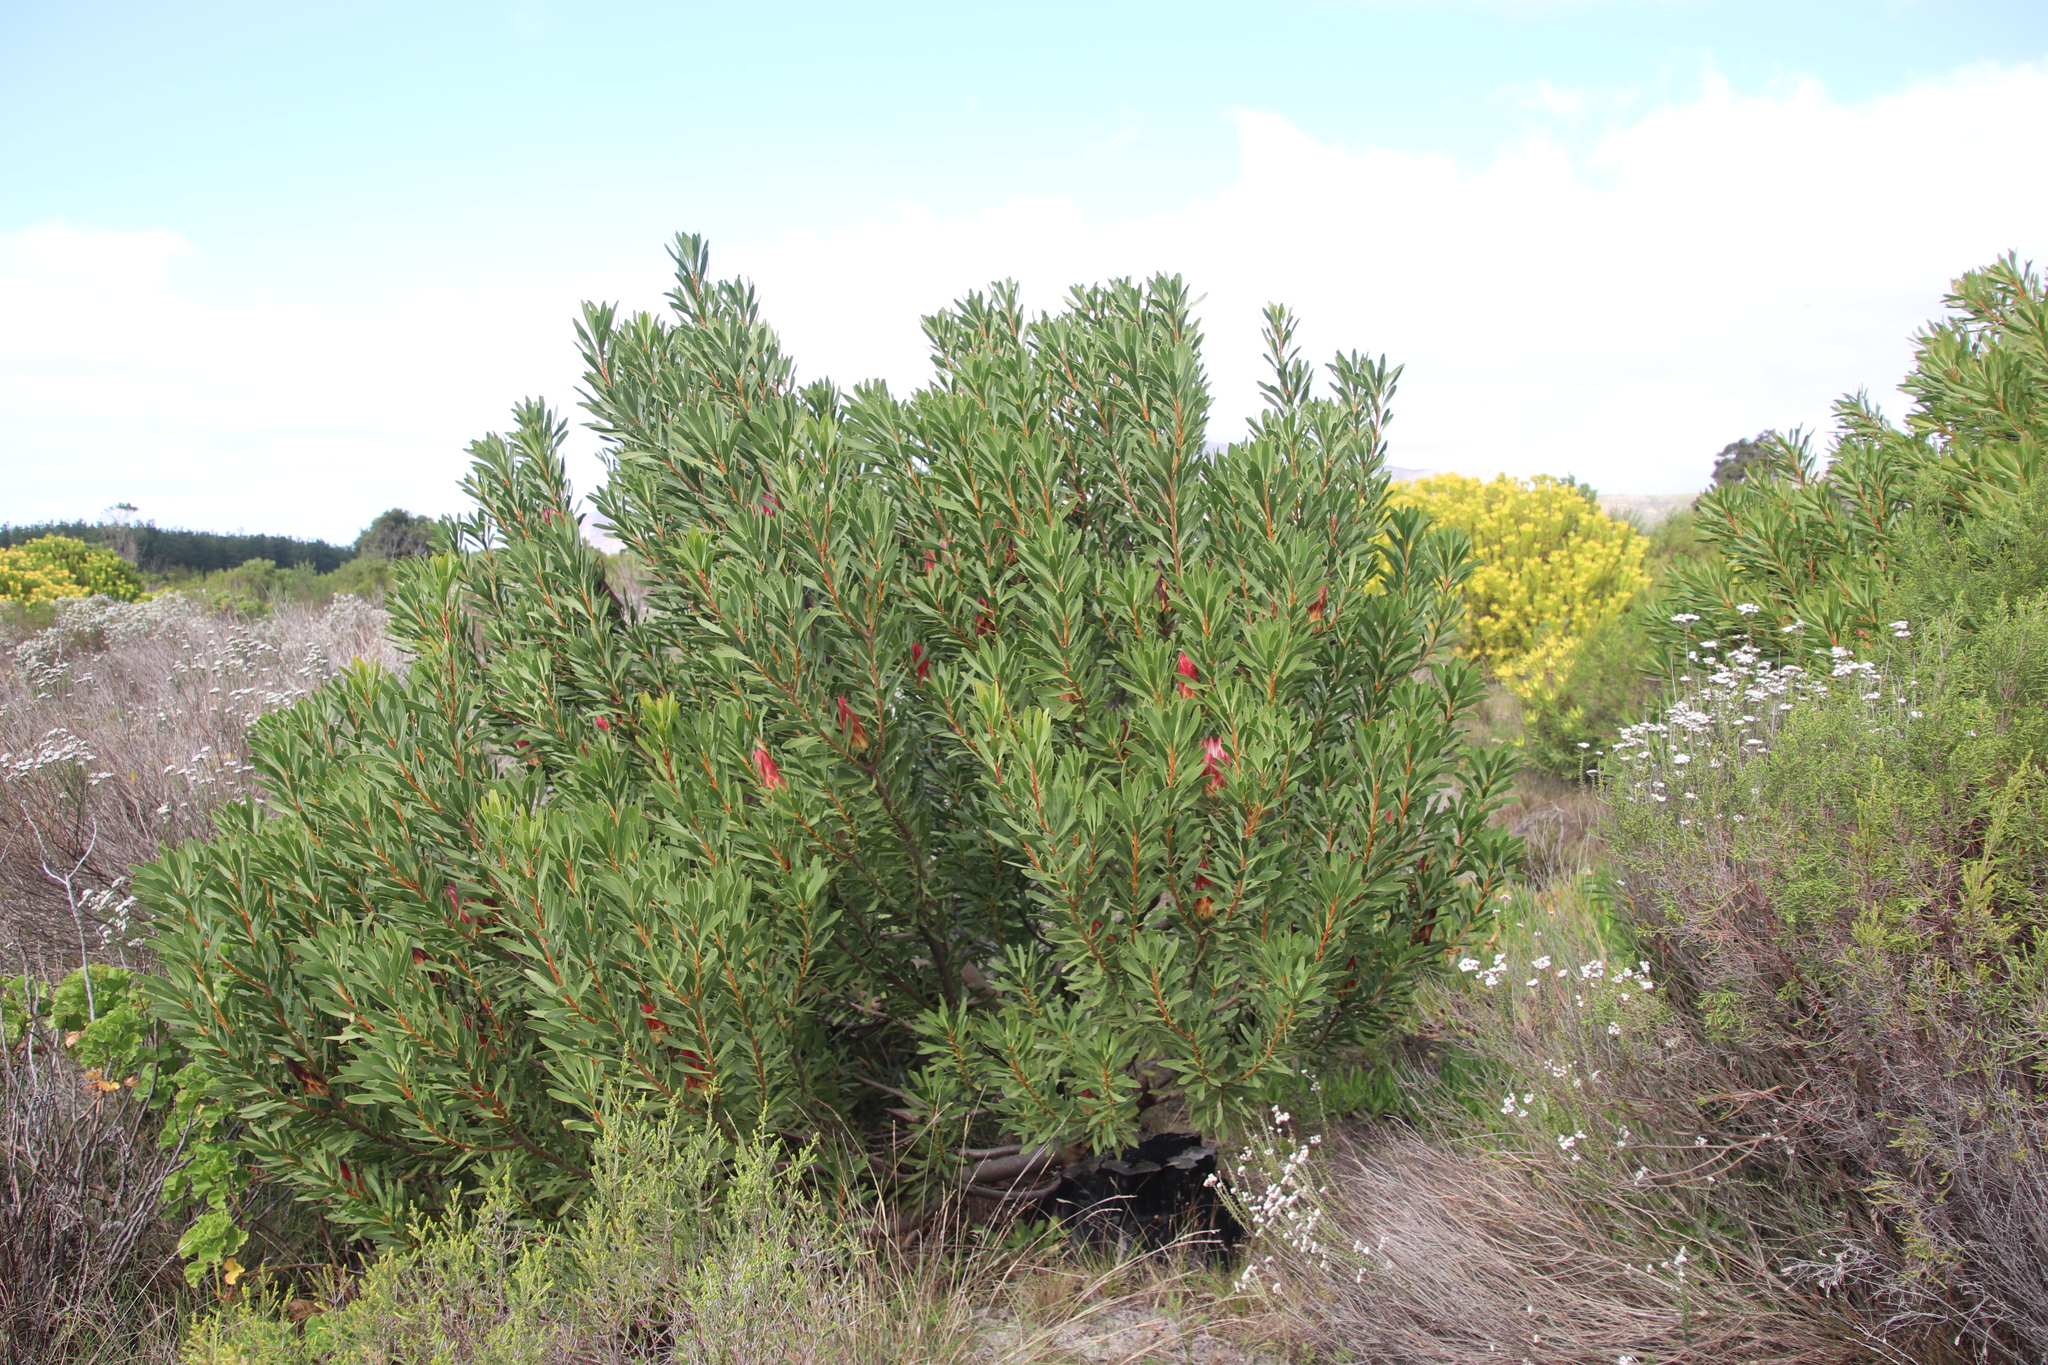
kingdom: Plantae
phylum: Tracheophyta
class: Magnoliopsida
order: Proteales
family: Proteaceae
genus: Protea
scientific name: Protea repens
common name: Sugarbush
